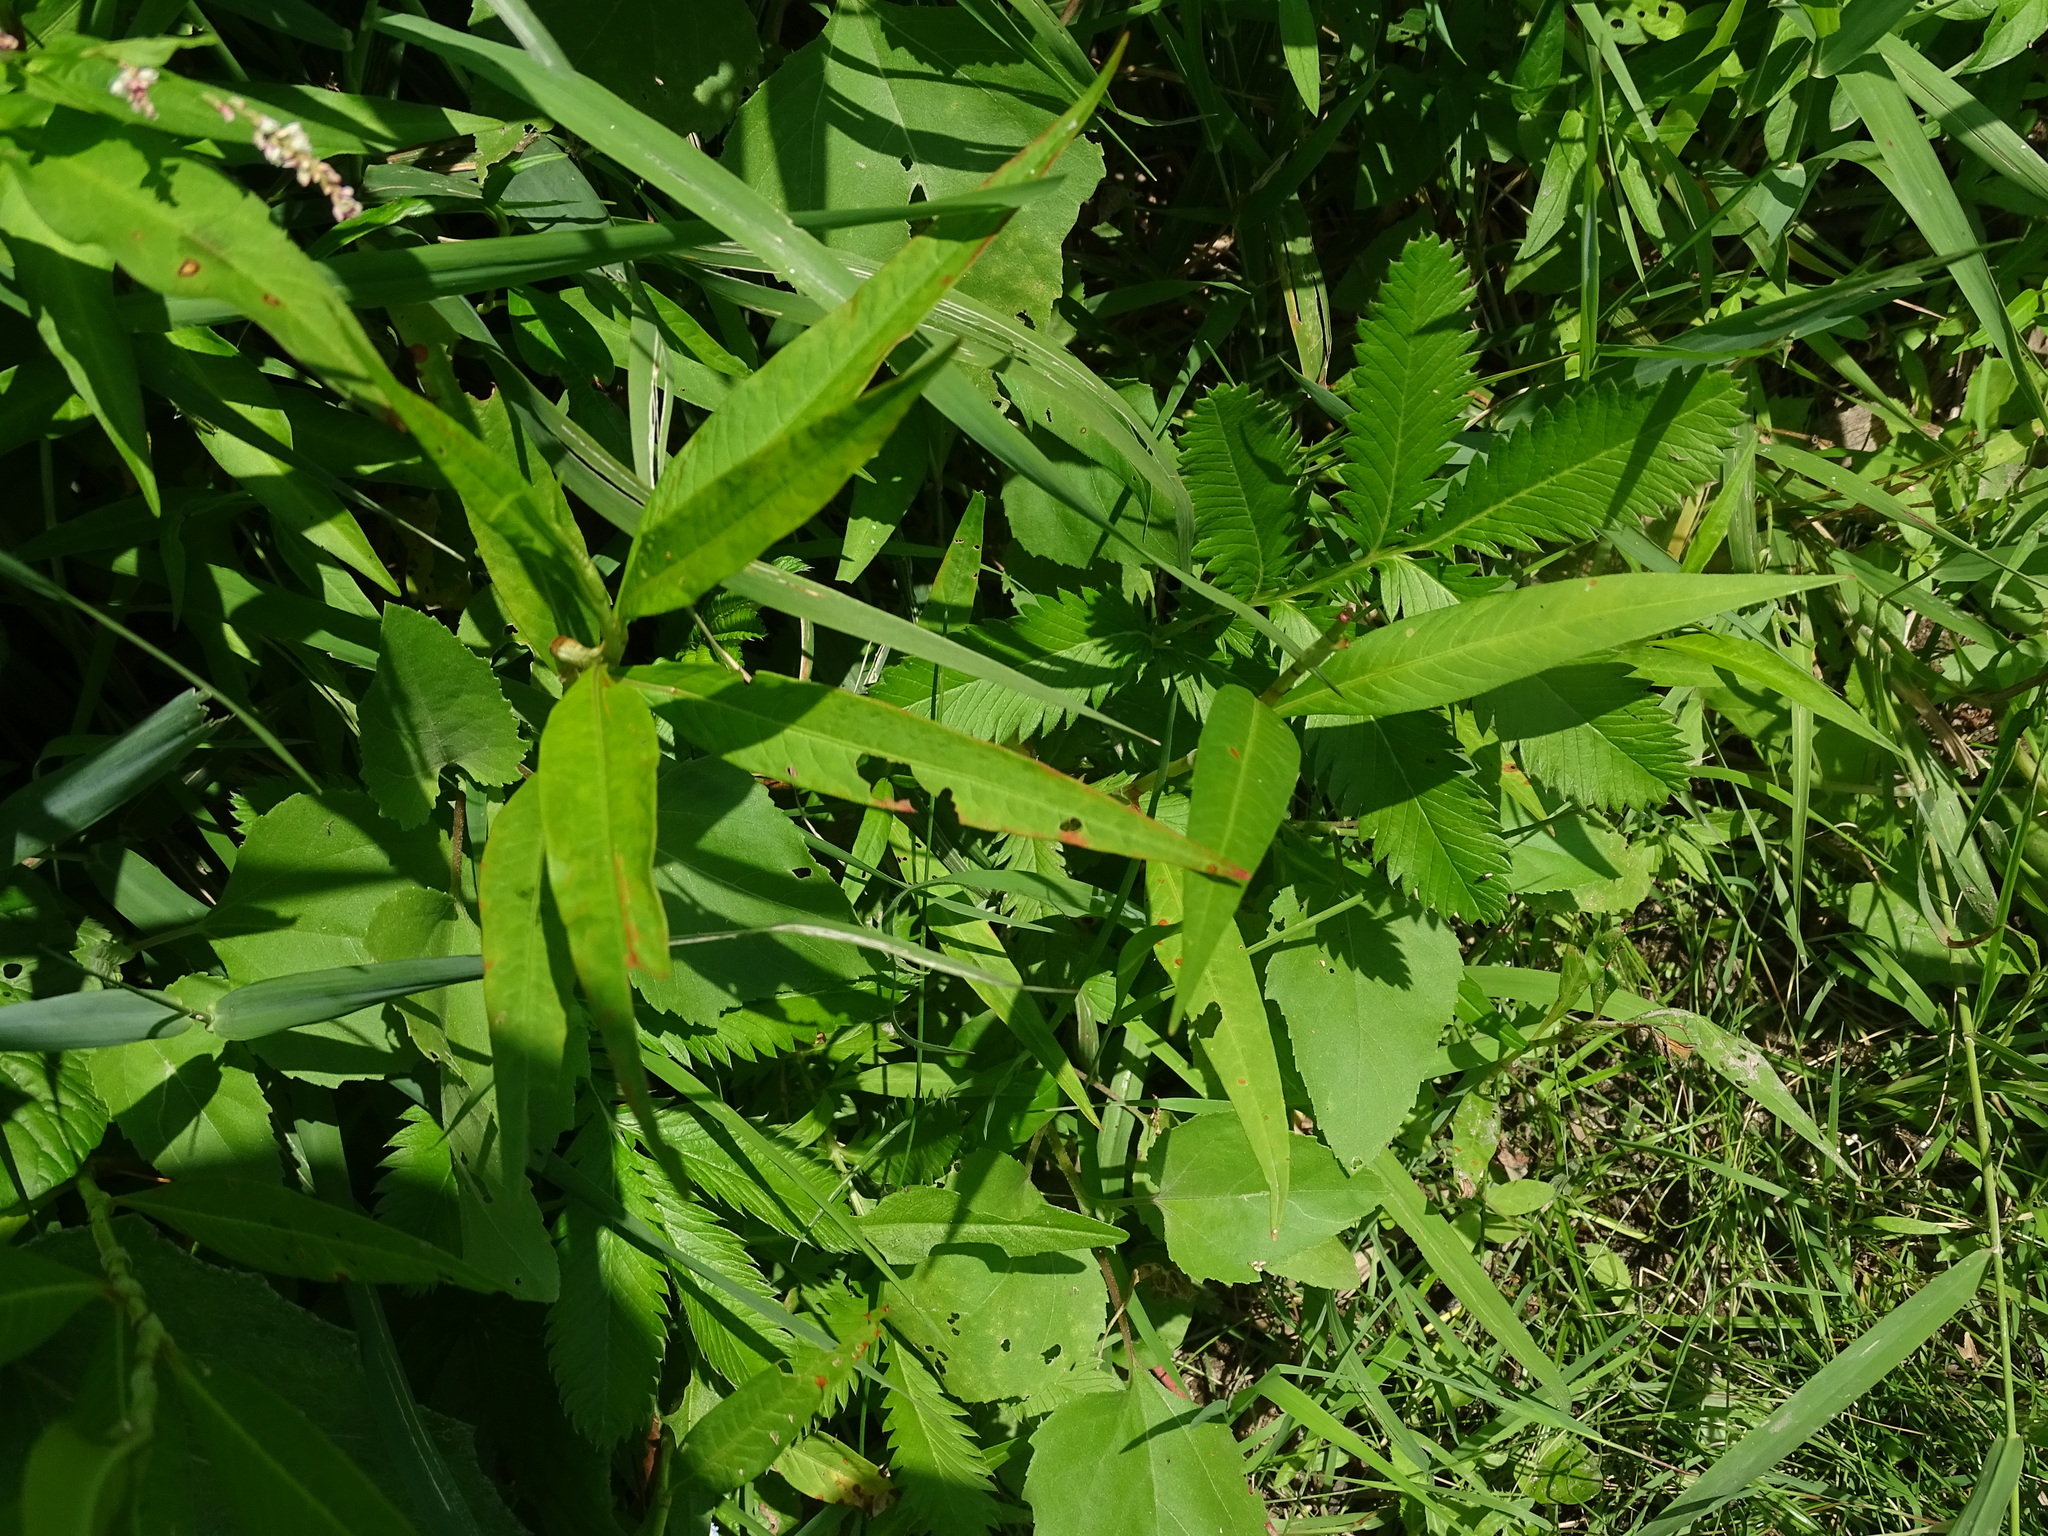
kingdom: Plantae
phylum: Tracheophyta
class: Magnoliopsida
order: Rosales
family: Rosaceae
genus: Argentina
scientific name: Argentina anserina
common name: Common silverweed
